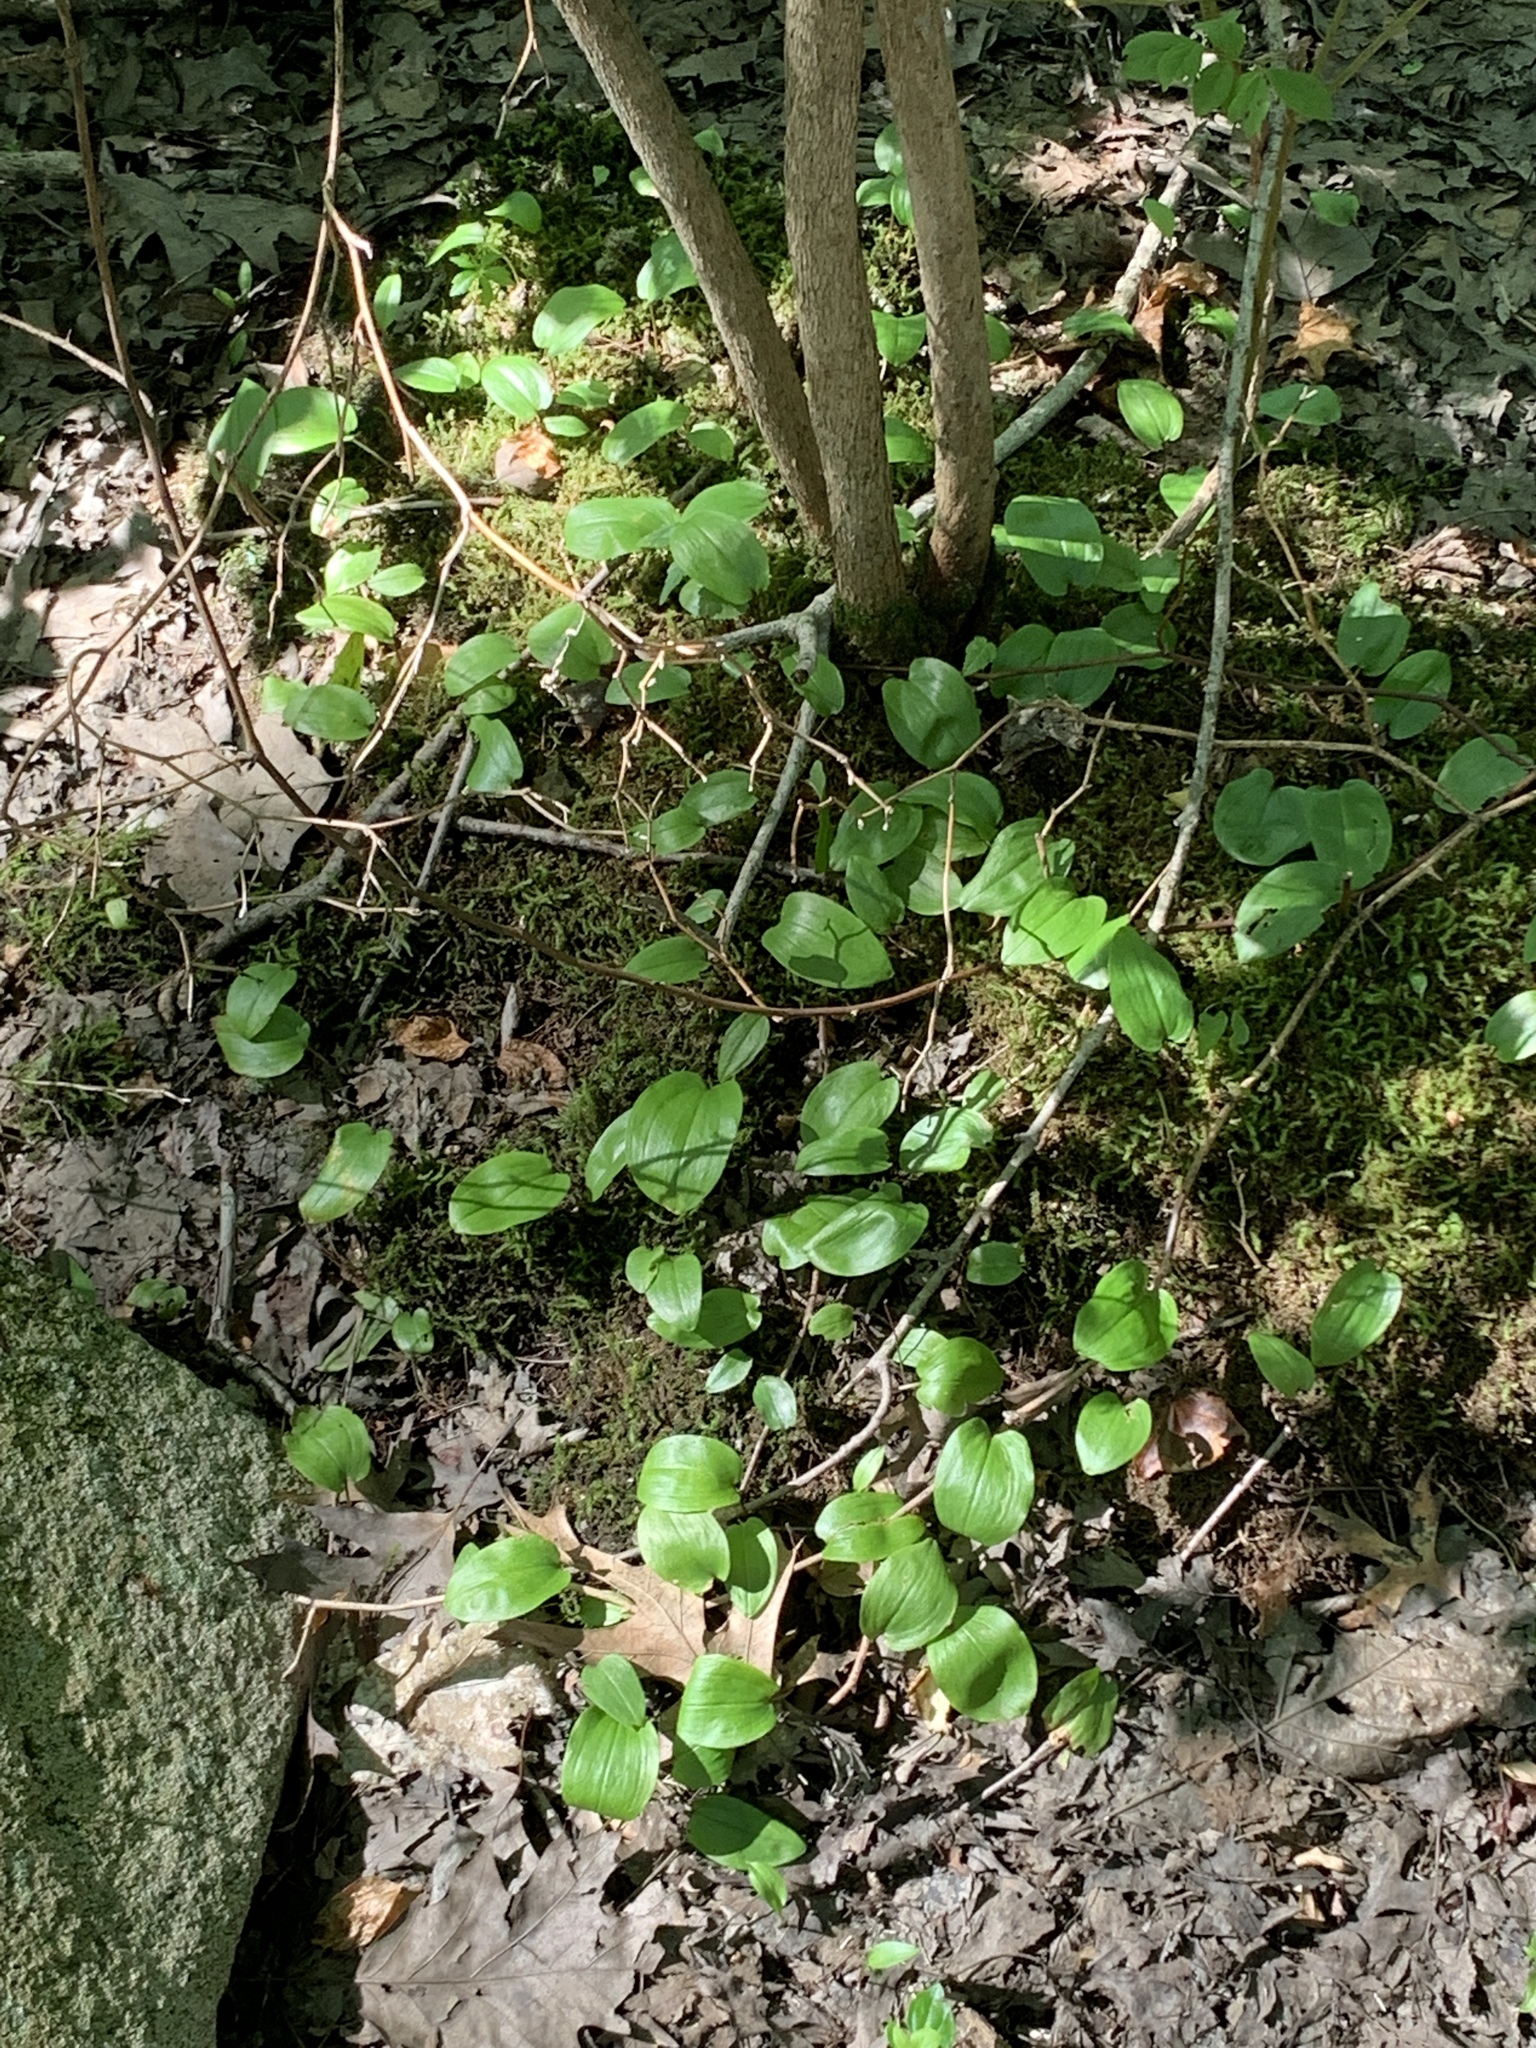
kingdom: Plantae
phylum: Tracheophyta
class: Liliopsida
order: Asparagales
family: Asparagaceae
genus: Maianthemum
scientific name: Maianthemum canadense
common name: False lily-of-the-valley
